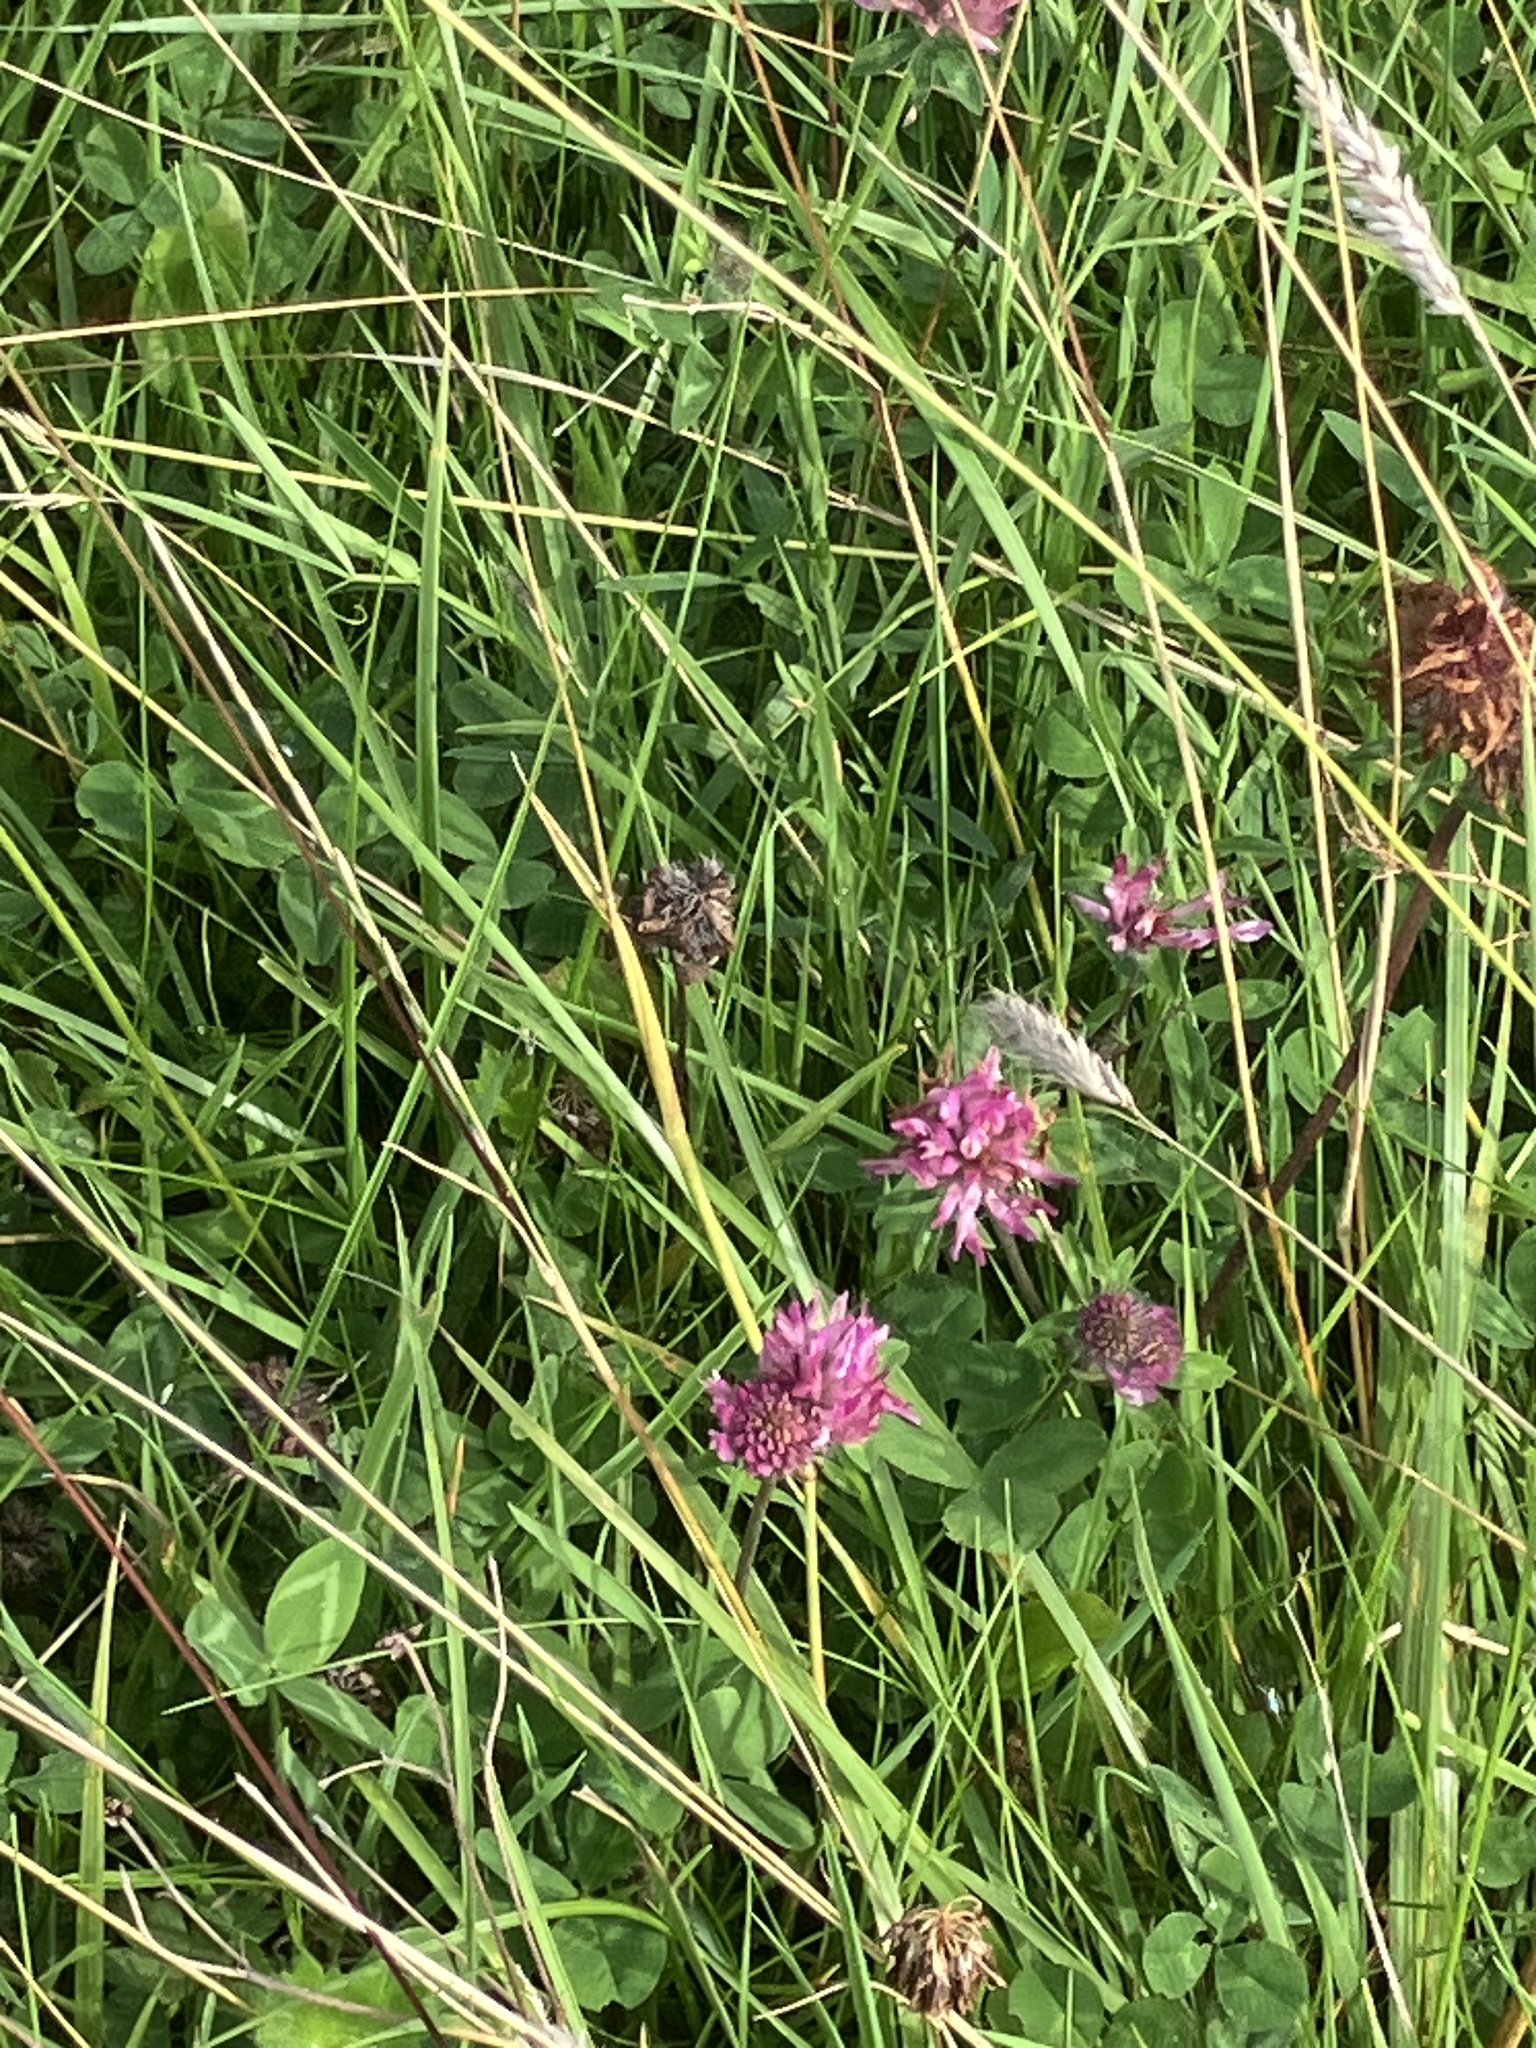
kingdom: Plantae
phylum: Tracheophyta
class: Magnoliopsida
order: Fabales
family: Fabaceae
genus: Trifolium
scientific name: Trifolium pratense
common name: Red clover
